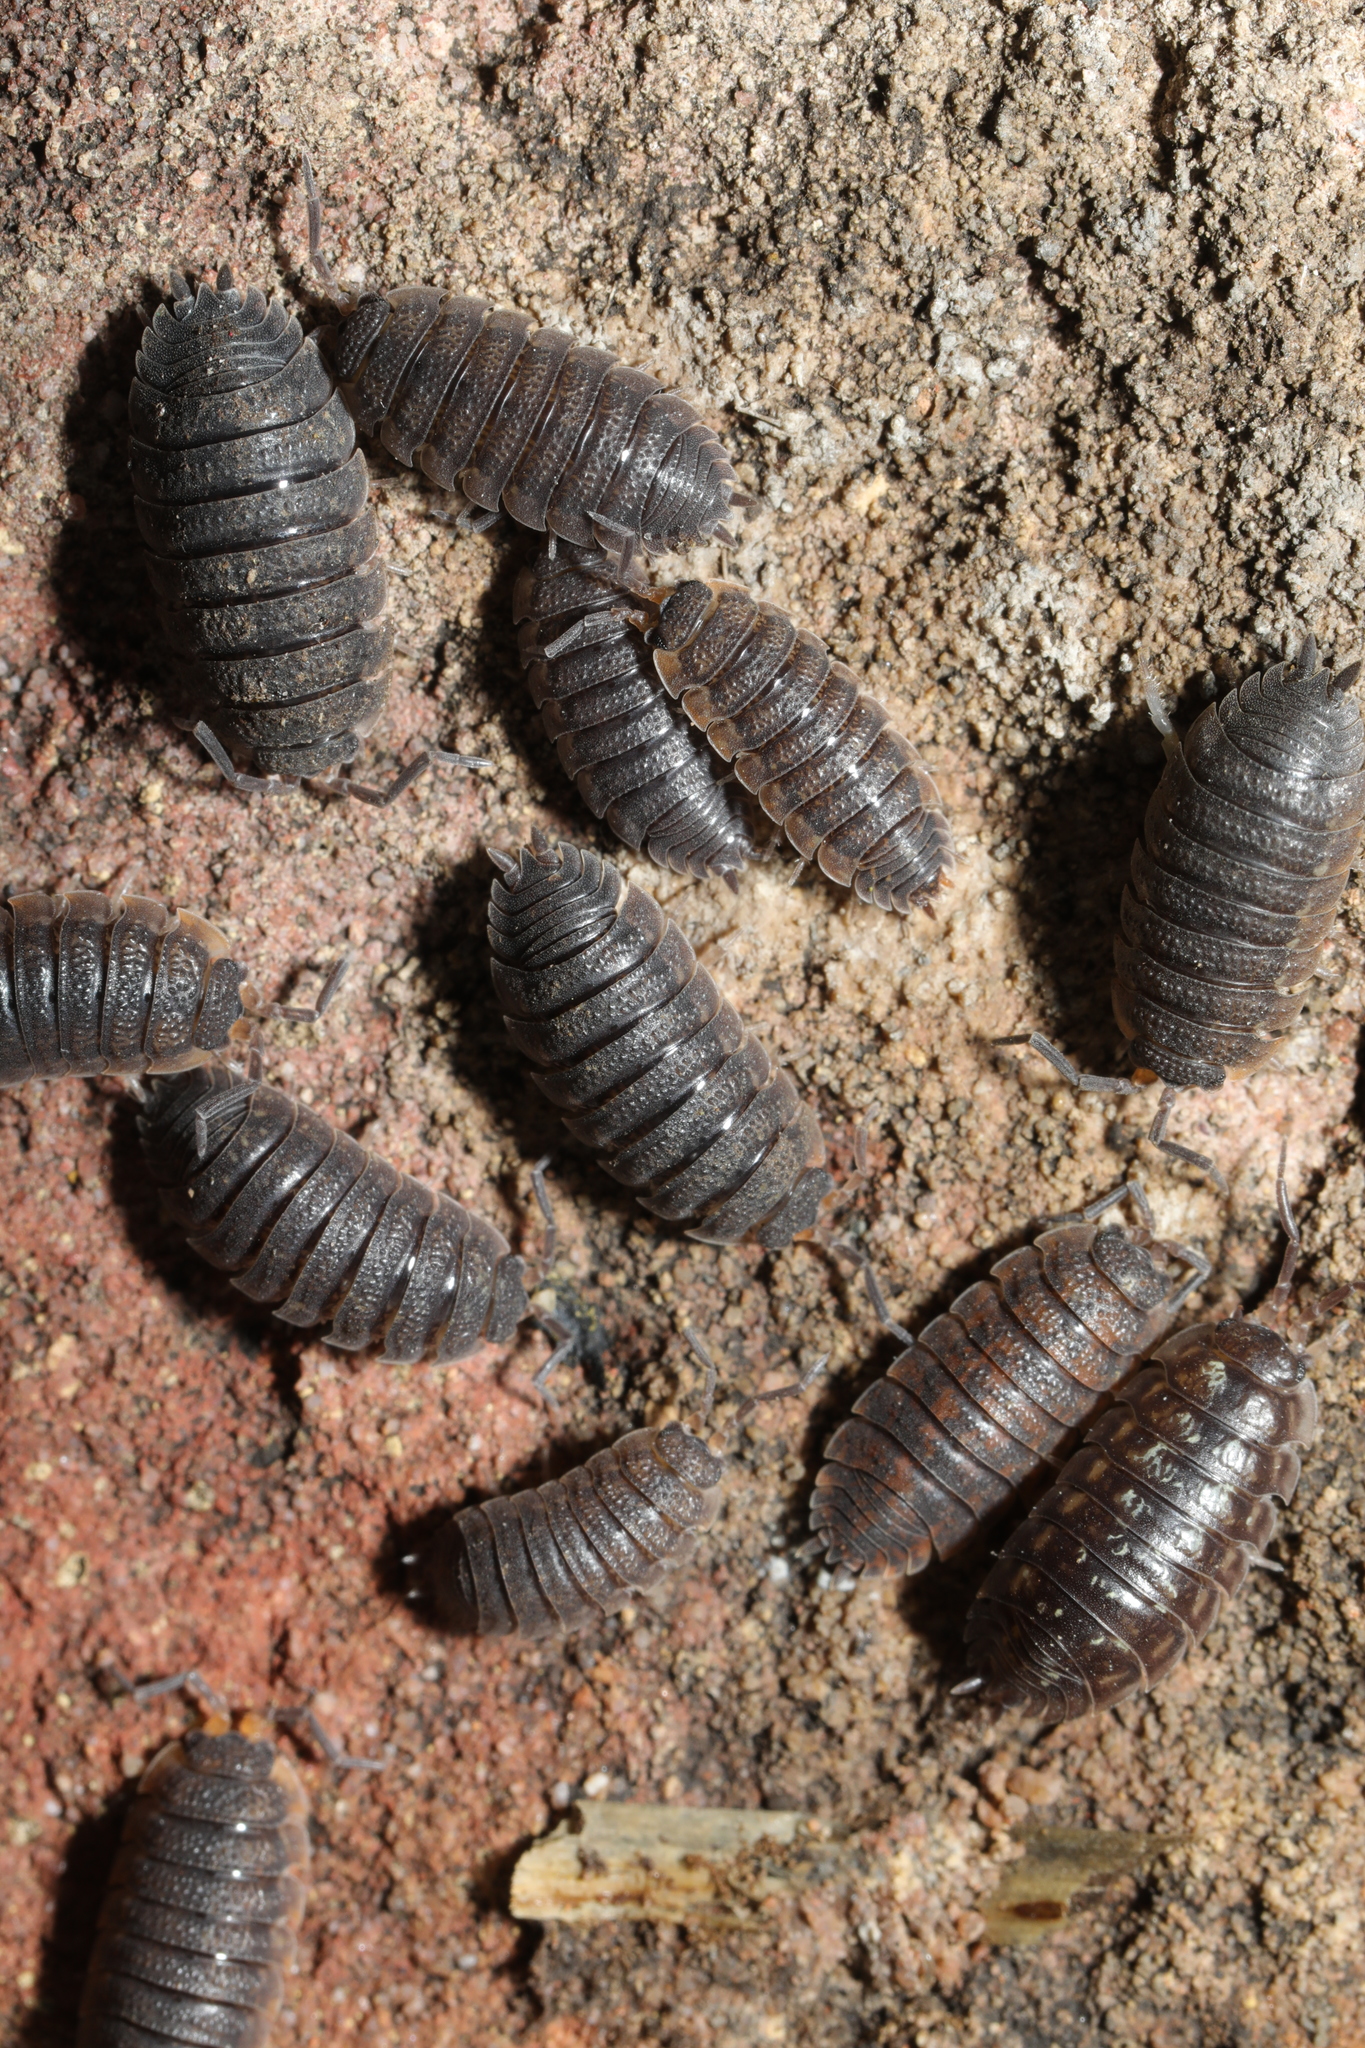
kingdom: Animalia
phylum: Arthropoda
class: Malacostraca
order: Isopoda
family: Porcellionidae
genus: Porcellio
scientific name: Porcellio scaber
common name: Common rough woodlouse
